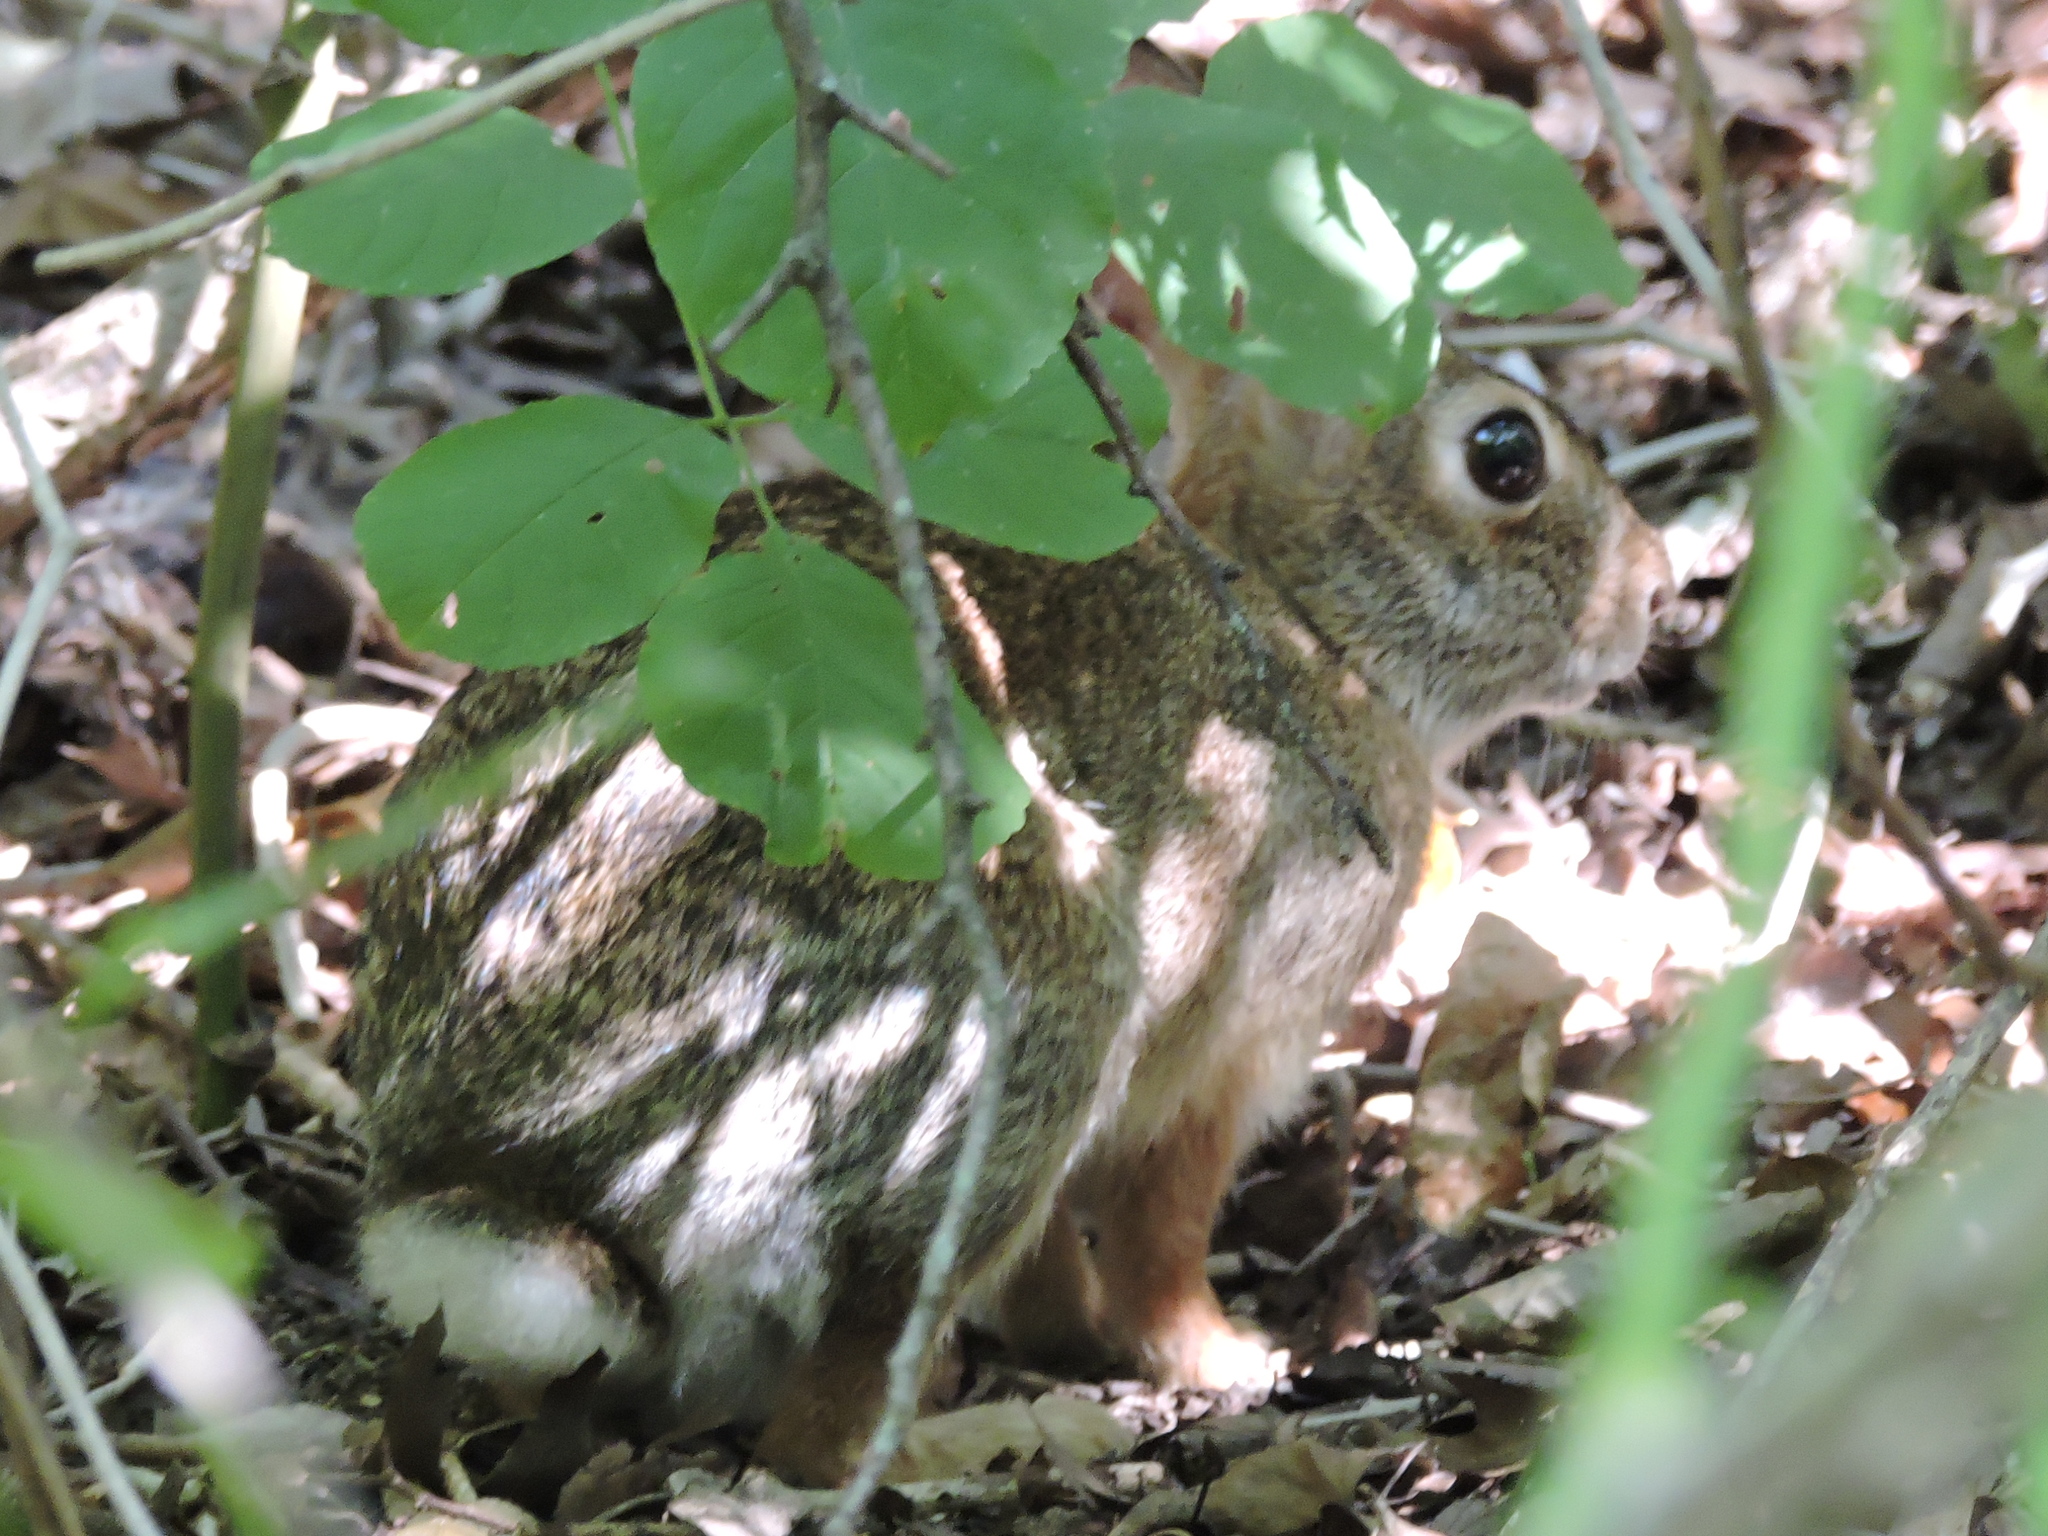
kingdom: Animalia
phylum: Chordata
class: Mammalia
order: Lagomorpha
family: Leporidae
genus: Sylvilagus
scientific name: Sylvilagus floridanus
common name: Eastern cottontail
